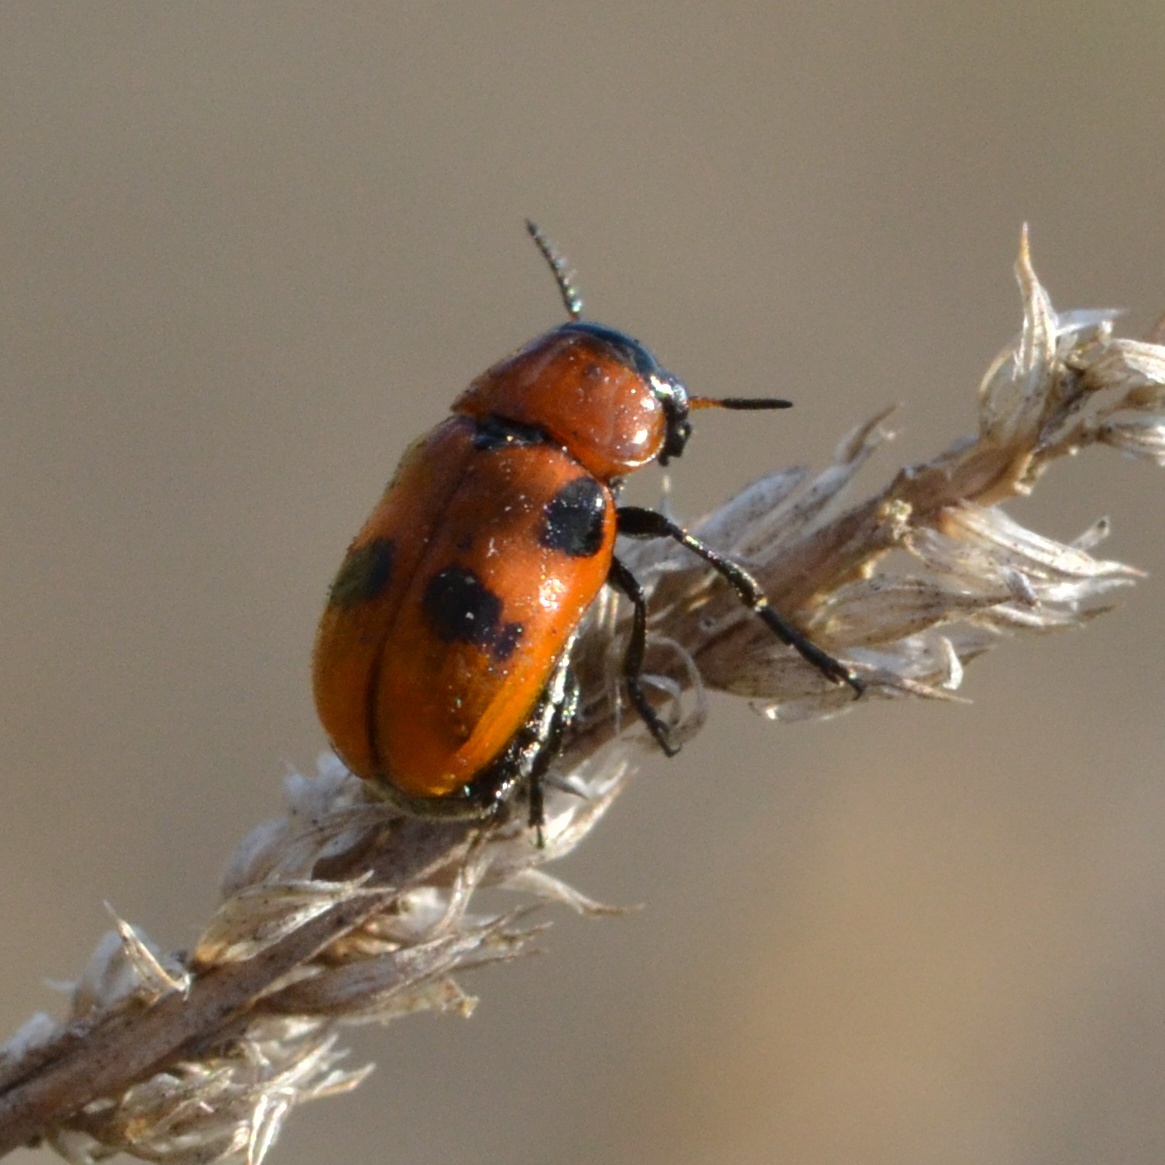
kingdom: Animalia
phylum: Arthropoda
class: Insecta
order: Coleoptera
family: Chrysomelidae
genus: Coptocephala
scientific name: Coptocephala rubicunda
